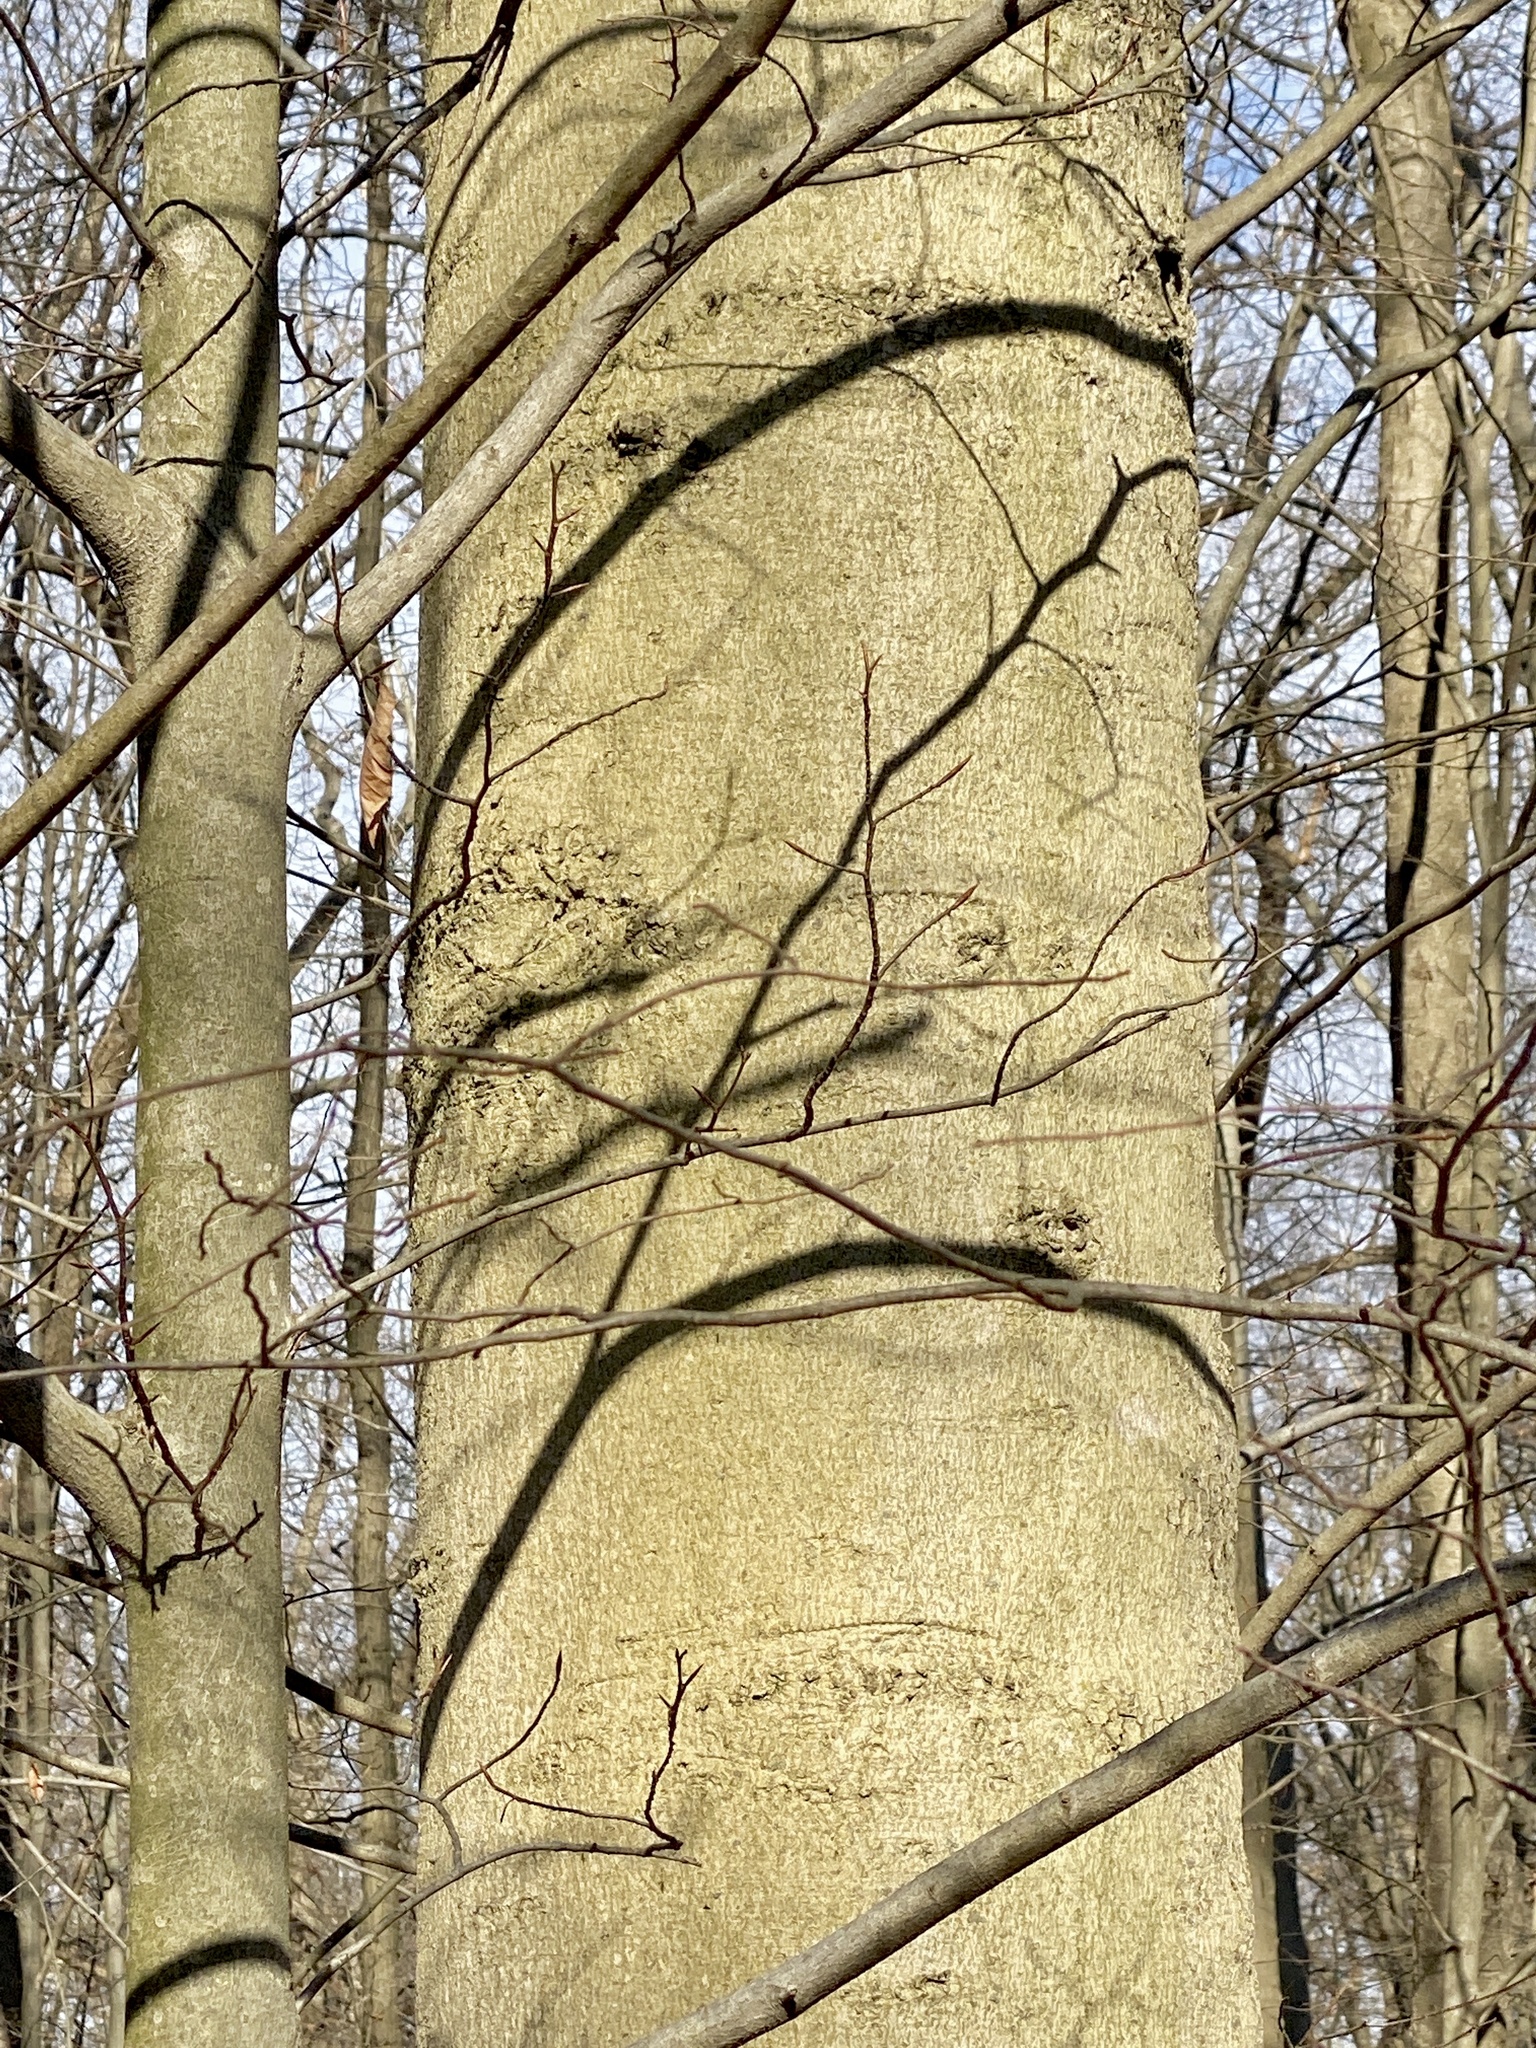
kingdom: Plantae
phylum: Tracheophyta
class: Magnoliopsida
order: Fagales
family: Fagaceae
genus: Fagus
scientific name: Fagus grandifolia
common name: American beech
